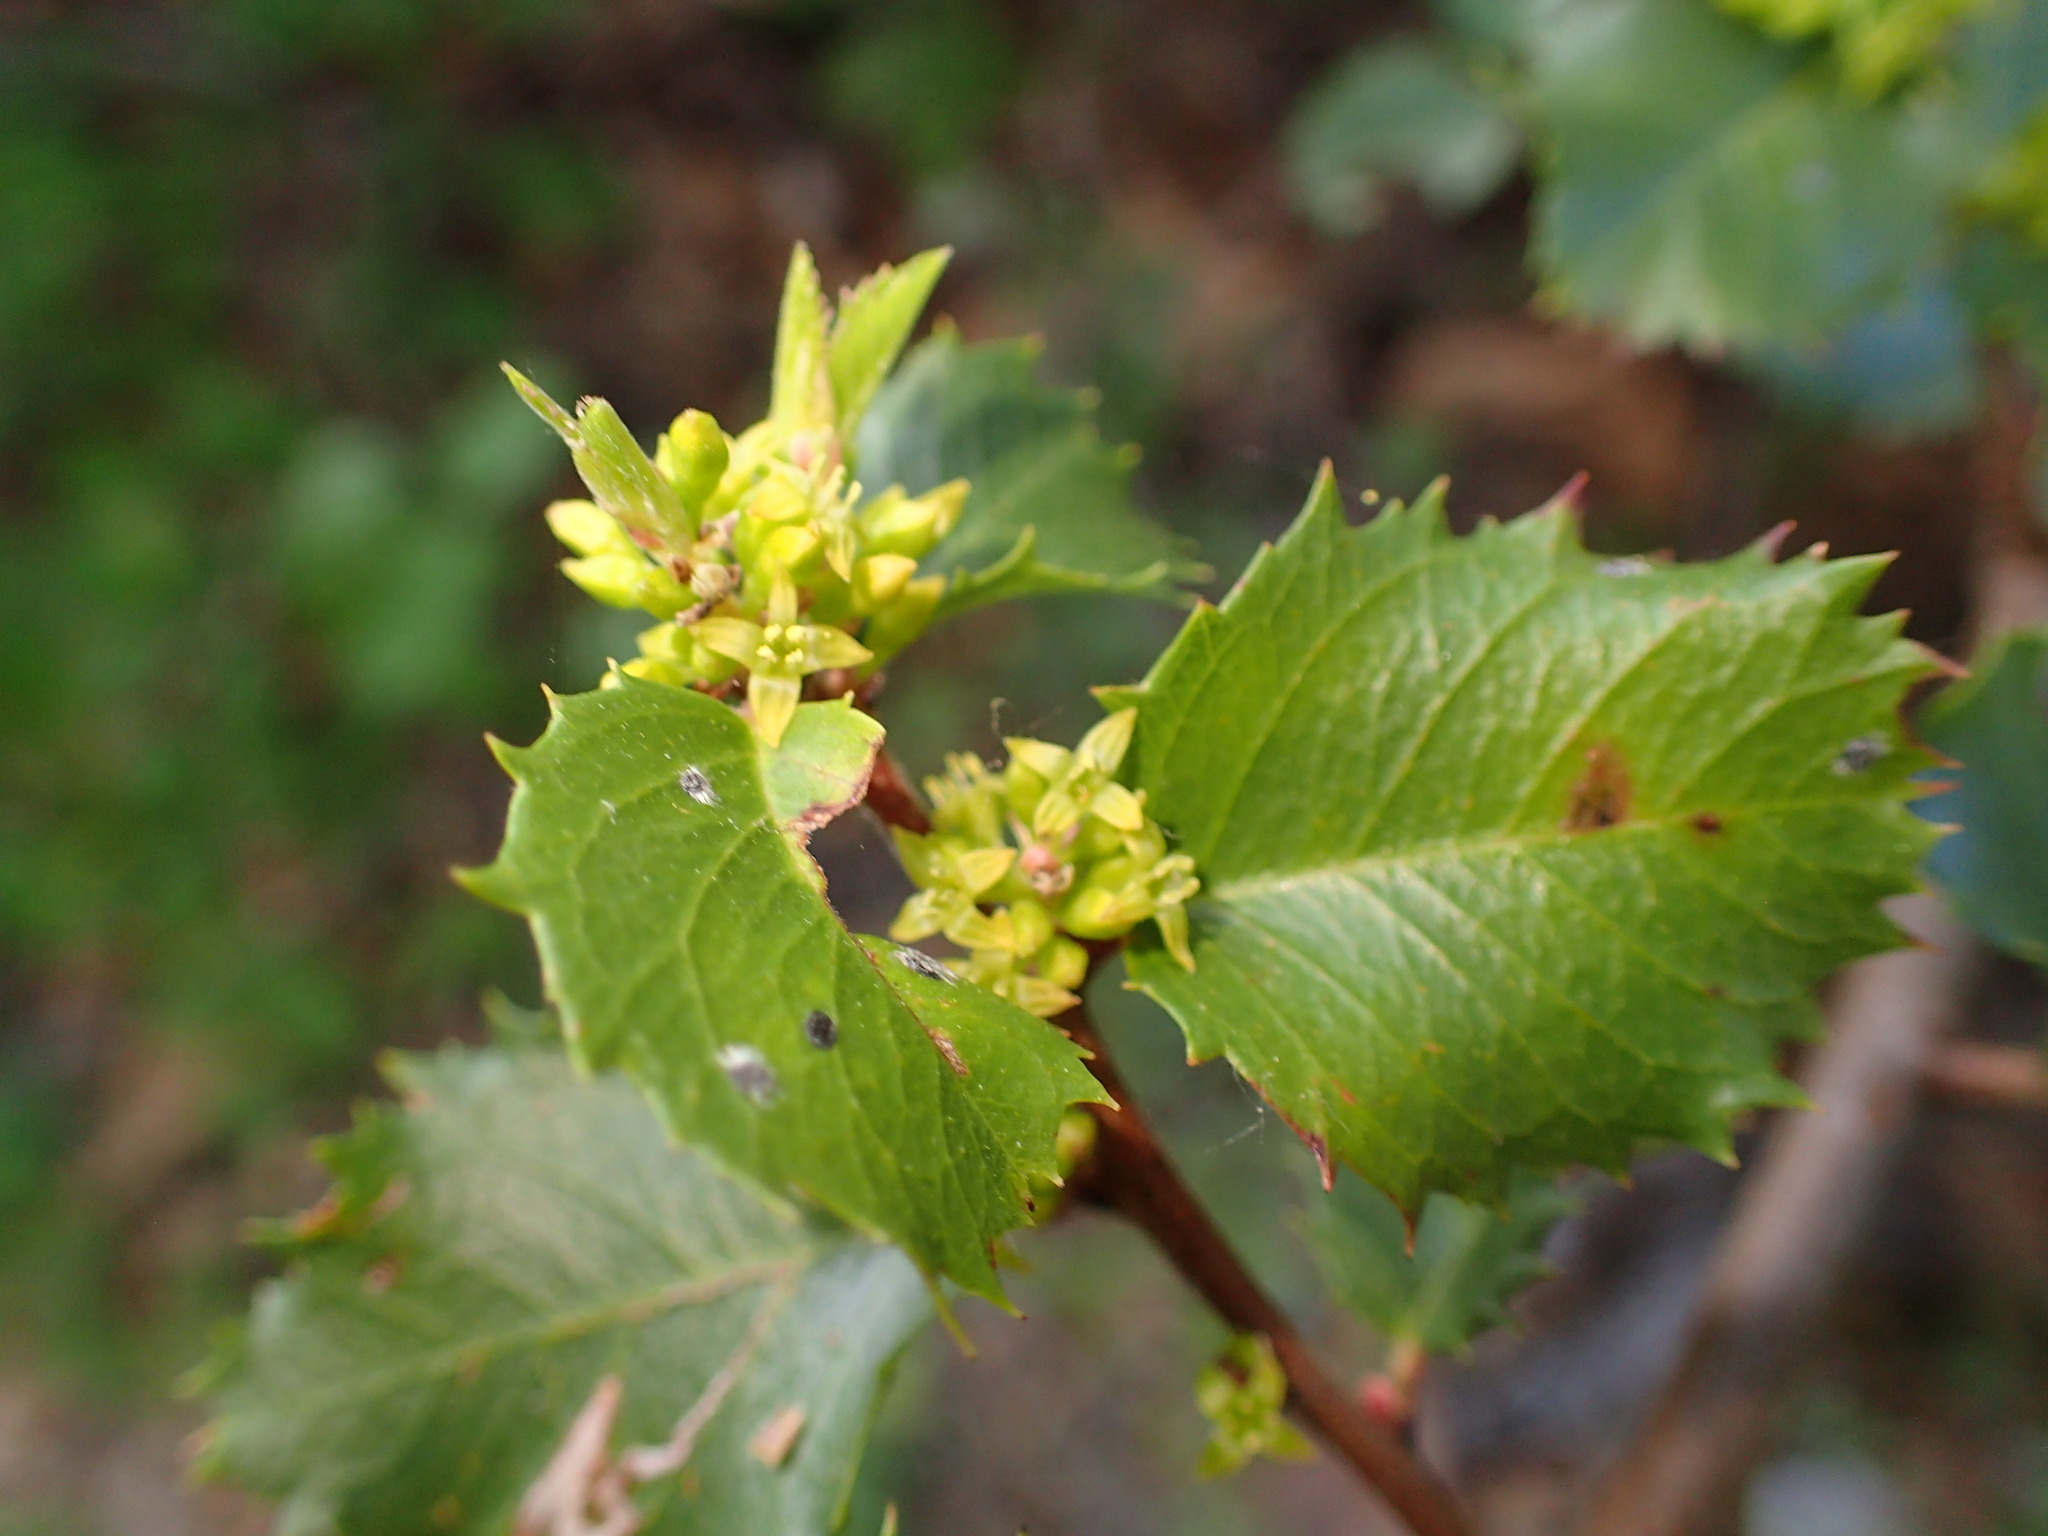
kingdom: Plantae
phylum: Tracheophyta
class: Magnoliopsida
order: Rosales
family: Rhamnaceae
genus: Endotropis
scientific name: Endotropis crocea
